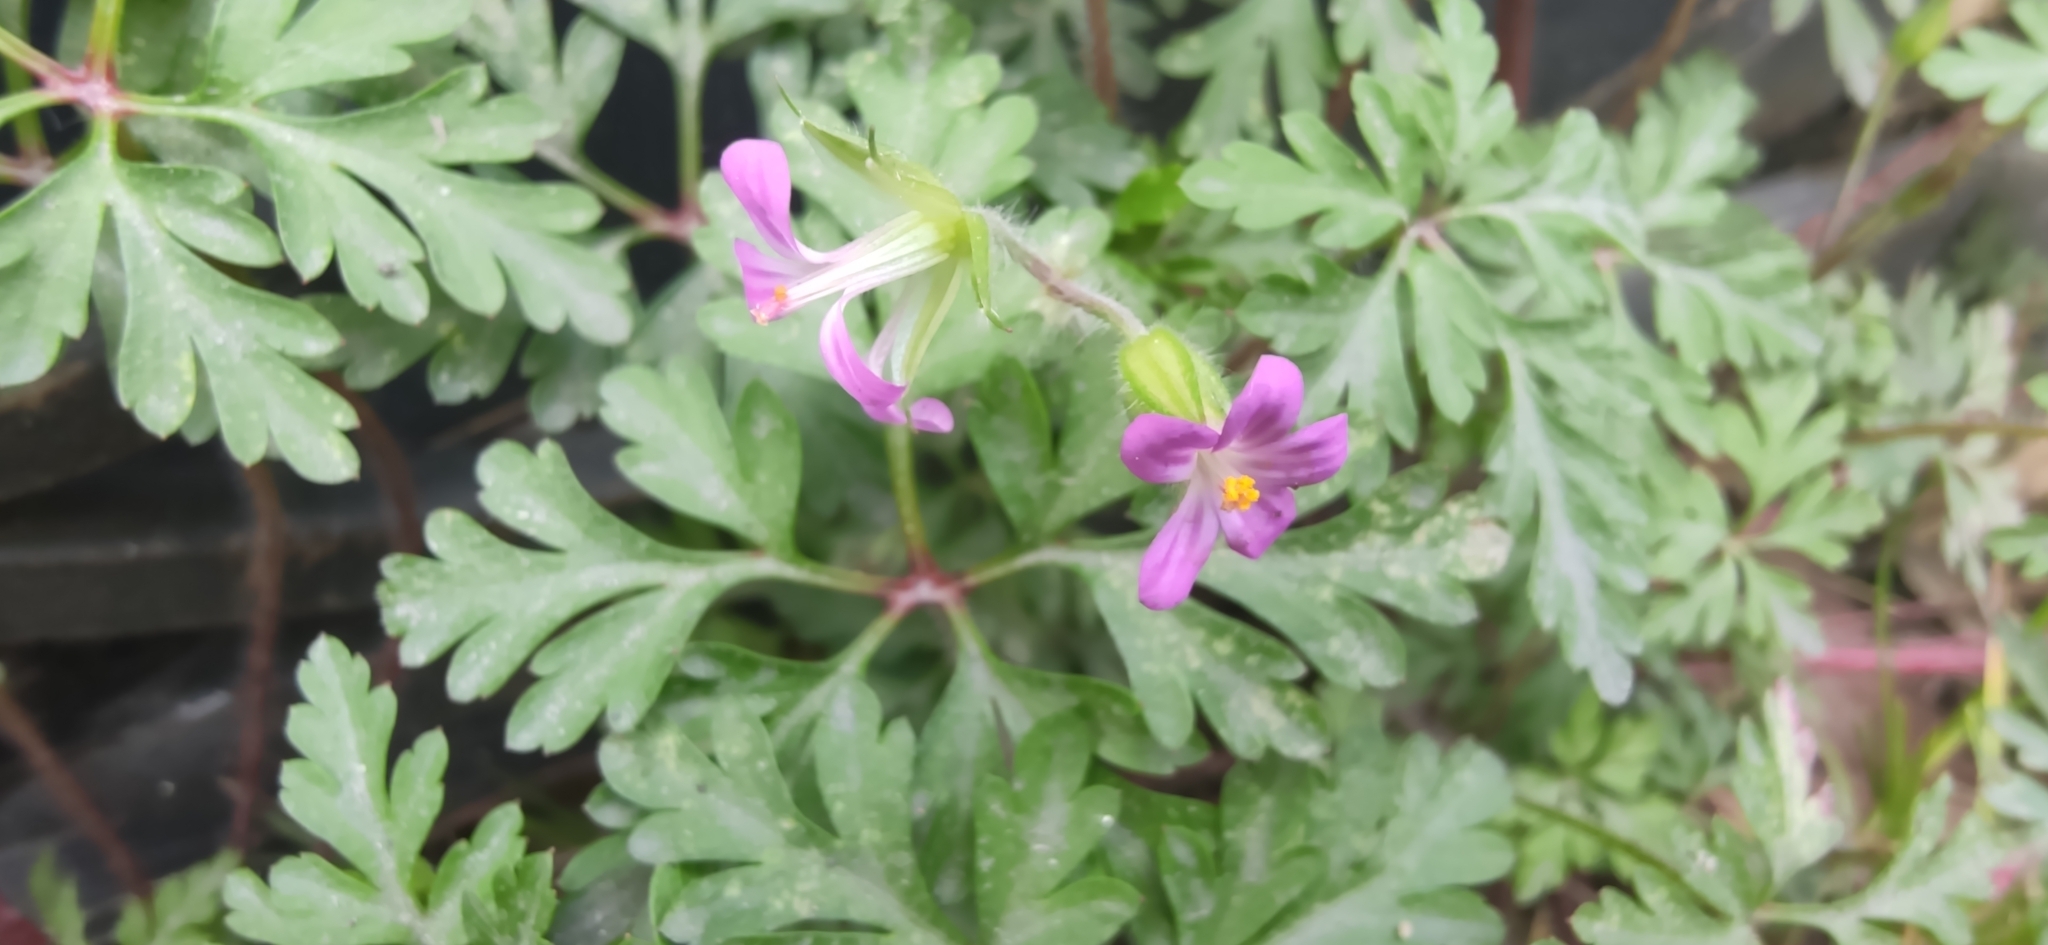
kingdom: Plantae
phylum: Tracheophyta
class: Magnoliopsida
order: Geraniales
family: Geraniaceae
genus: Geranium
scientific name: Geranium purpureum
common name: Little-robin
